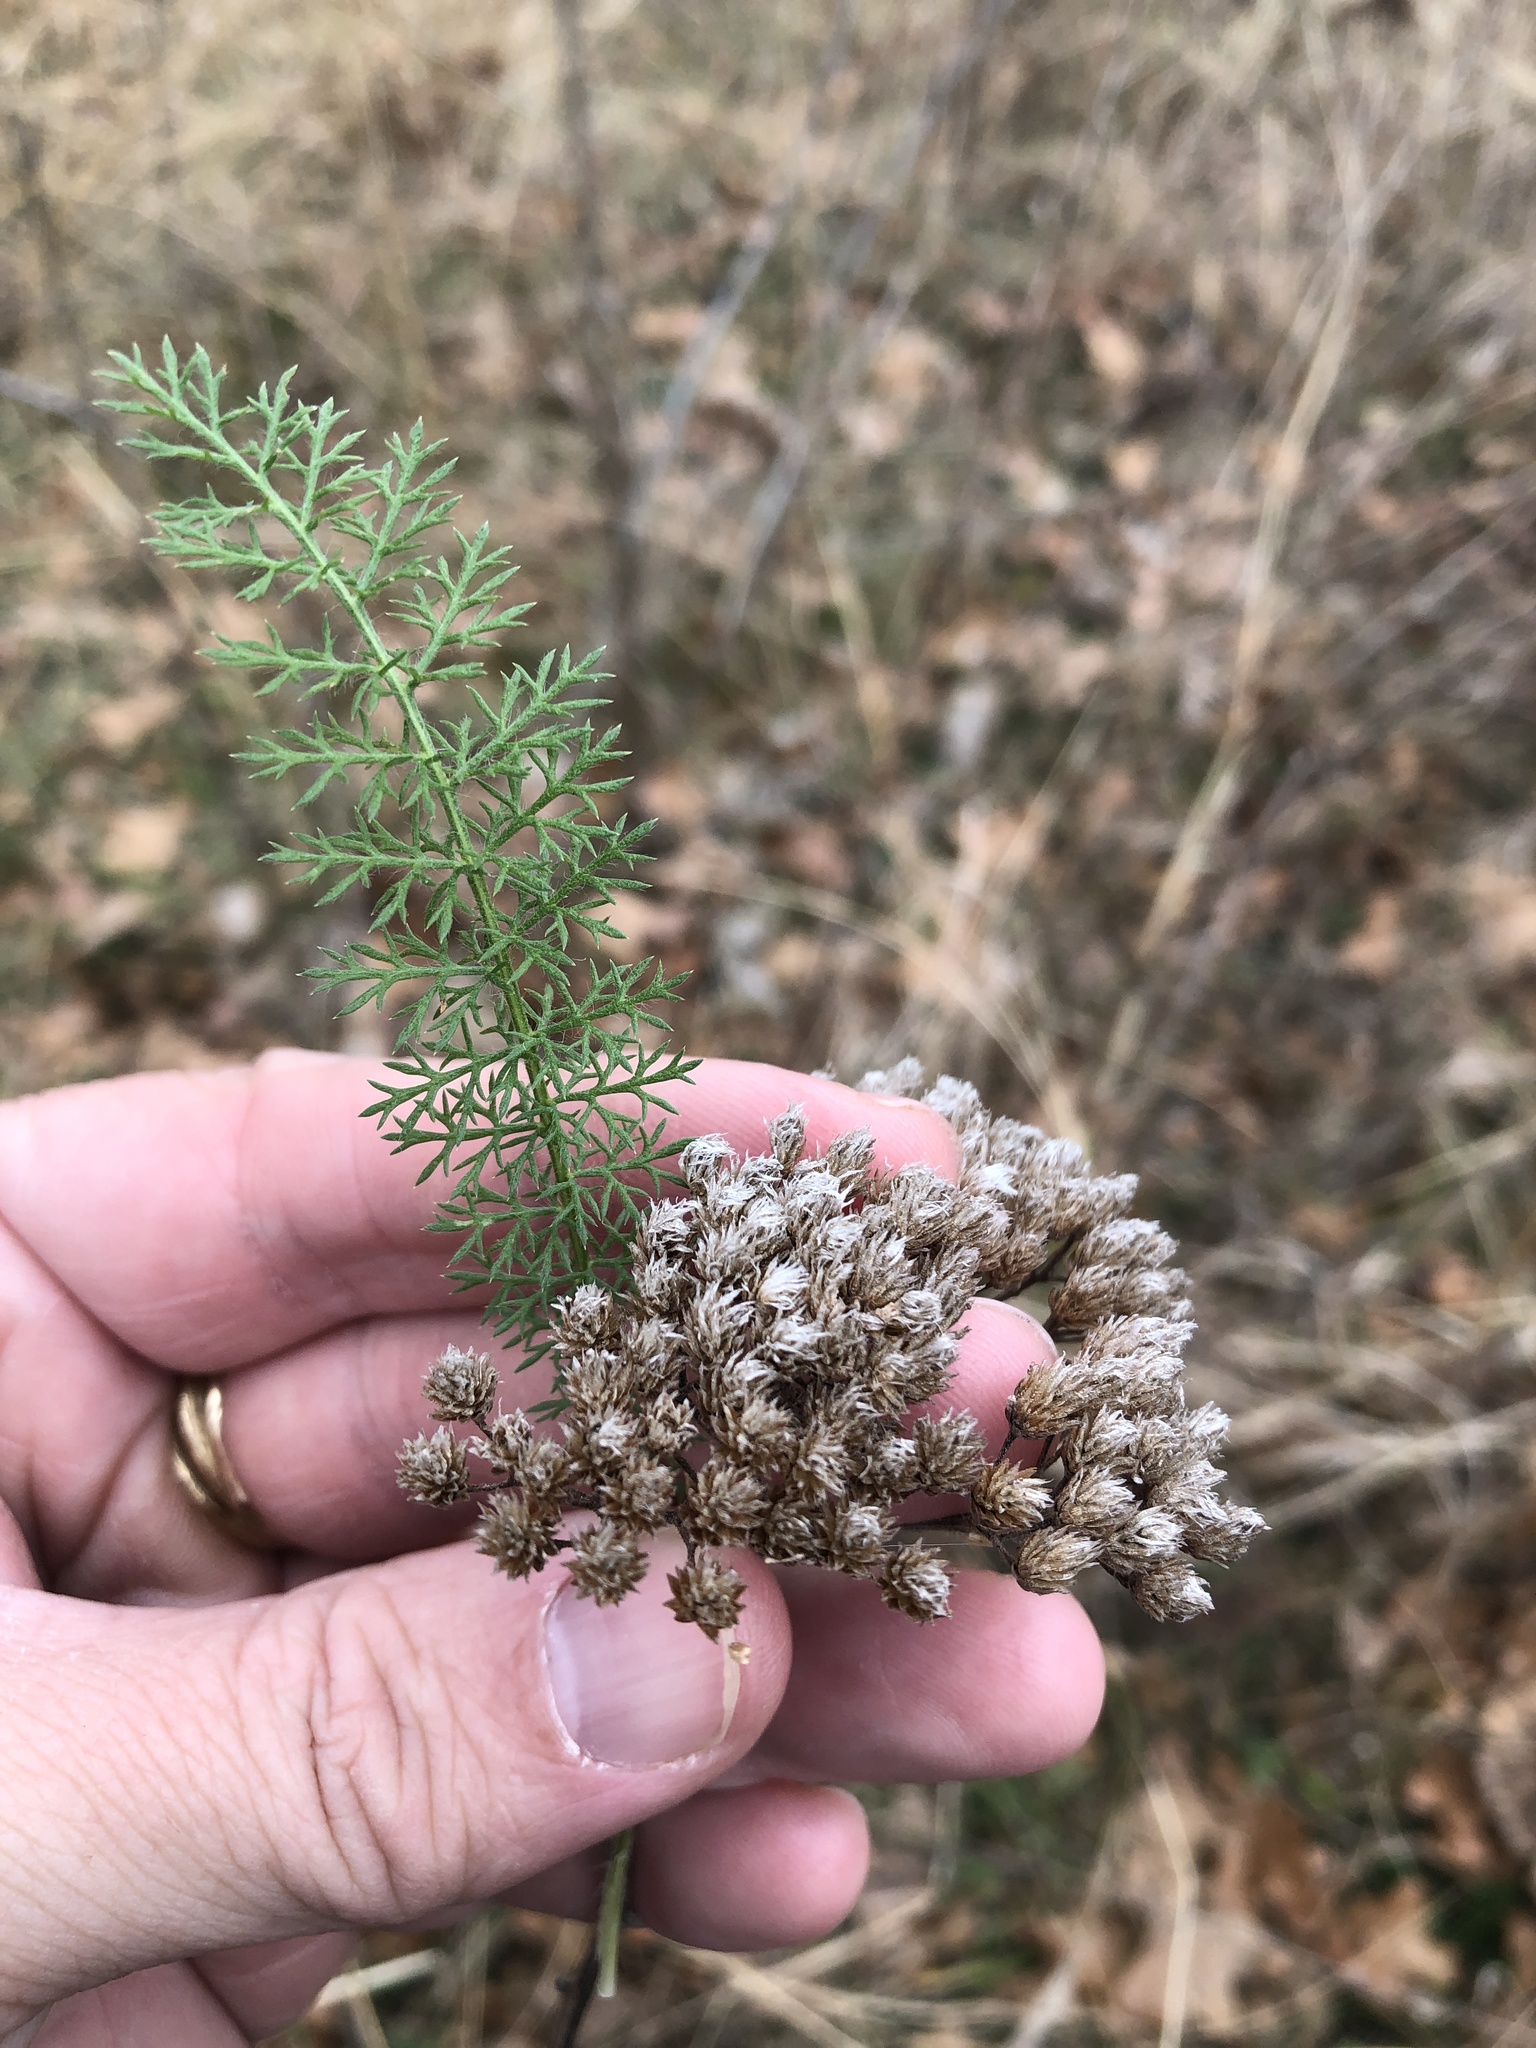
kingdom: Plantae
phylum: Tracheophyta
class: Magnoliopsida
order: Asterales
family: Asteraceae
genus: Achillea
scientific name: Achillea millefolium
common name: Yarrow
